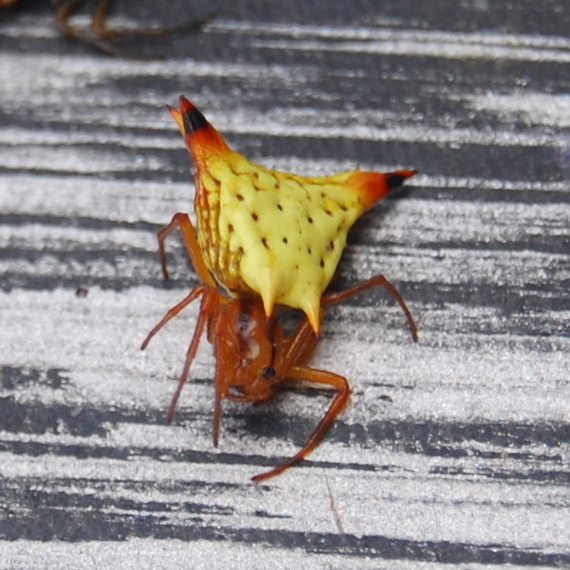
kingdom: Animalia
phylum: Arthropoda
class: Arachnida
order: Araneae
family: Araneidae
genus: Micrathena
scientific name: Micrathena furcata
